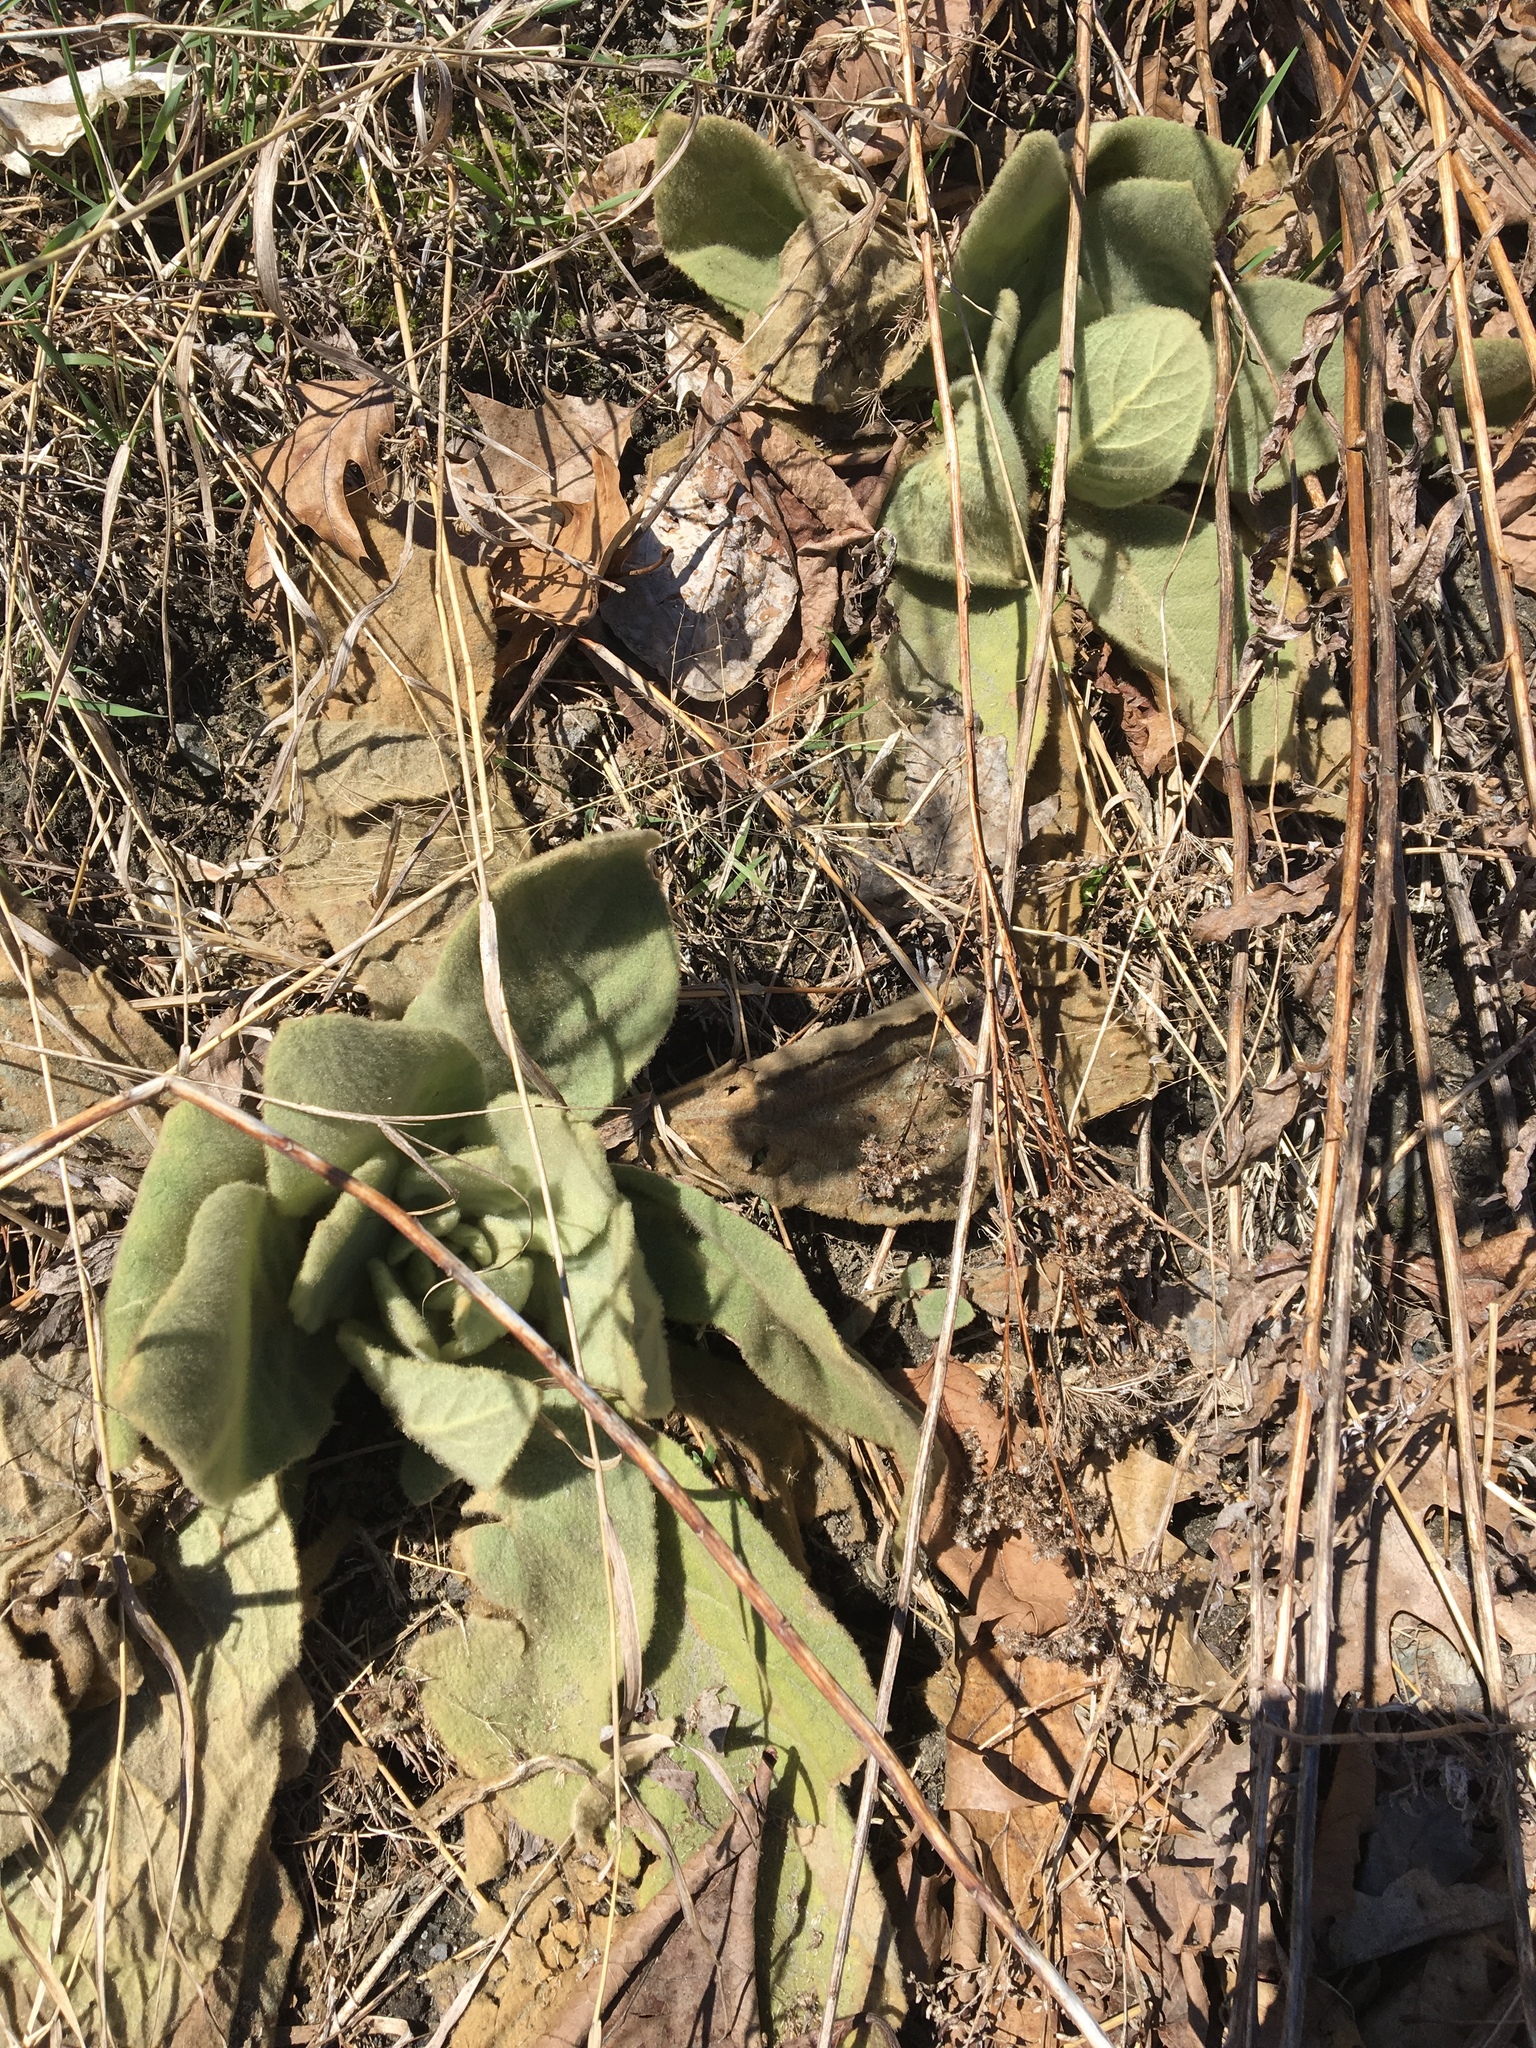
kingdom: Plantae
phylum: Tracheophyta
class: Magnoliopsida
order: Lamiales
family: Scrophulariaceae
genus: Verbascum
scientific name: Verbascum thapsus
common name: Common mullein
